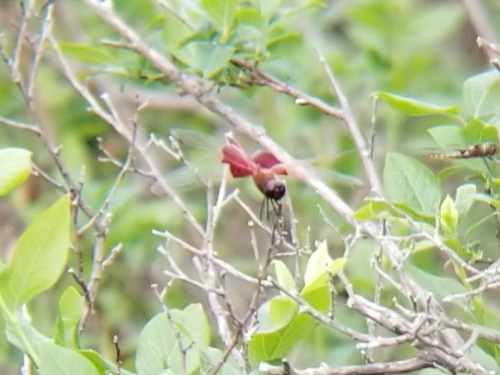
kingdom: Animalia
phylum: Arthropoda
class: Insecta
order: Odonata
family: Libellulidae
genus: Tramea
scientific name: Tramea carolina
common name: Carolina saddlebags
